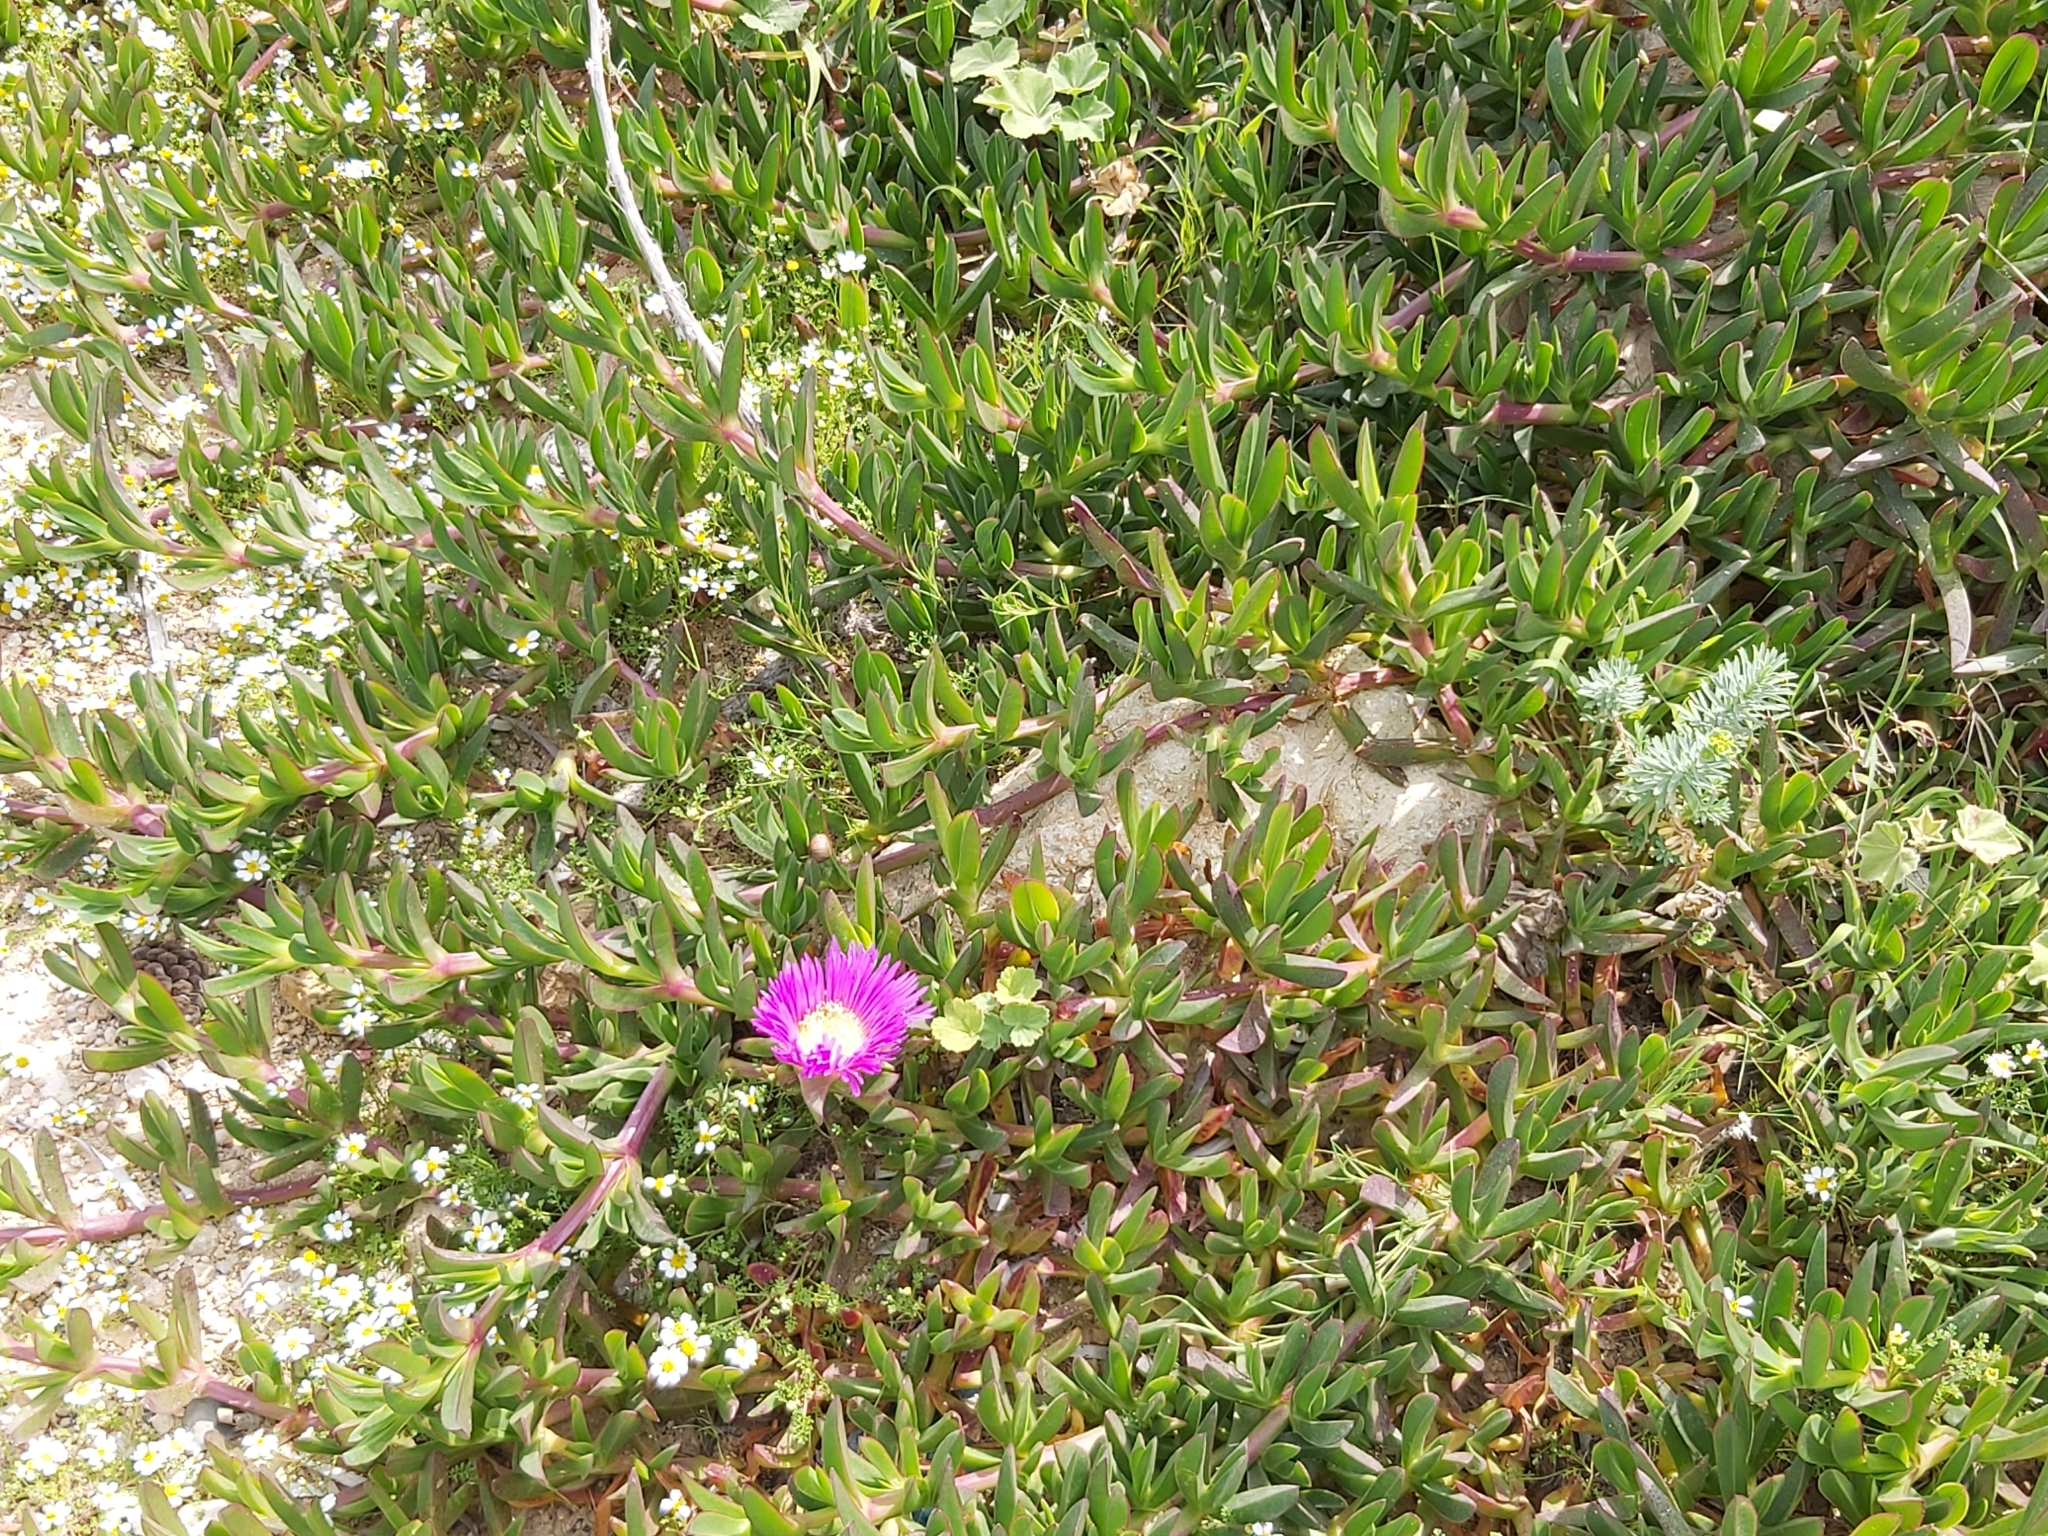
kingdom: Plantae
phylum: Tracheophyta
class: Magnoliopsida
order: Caryophyllales
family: Aizoaceae
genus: Carpobrotus
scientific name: Carpobrotus acinaciformis
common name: Sally-my-handsome
